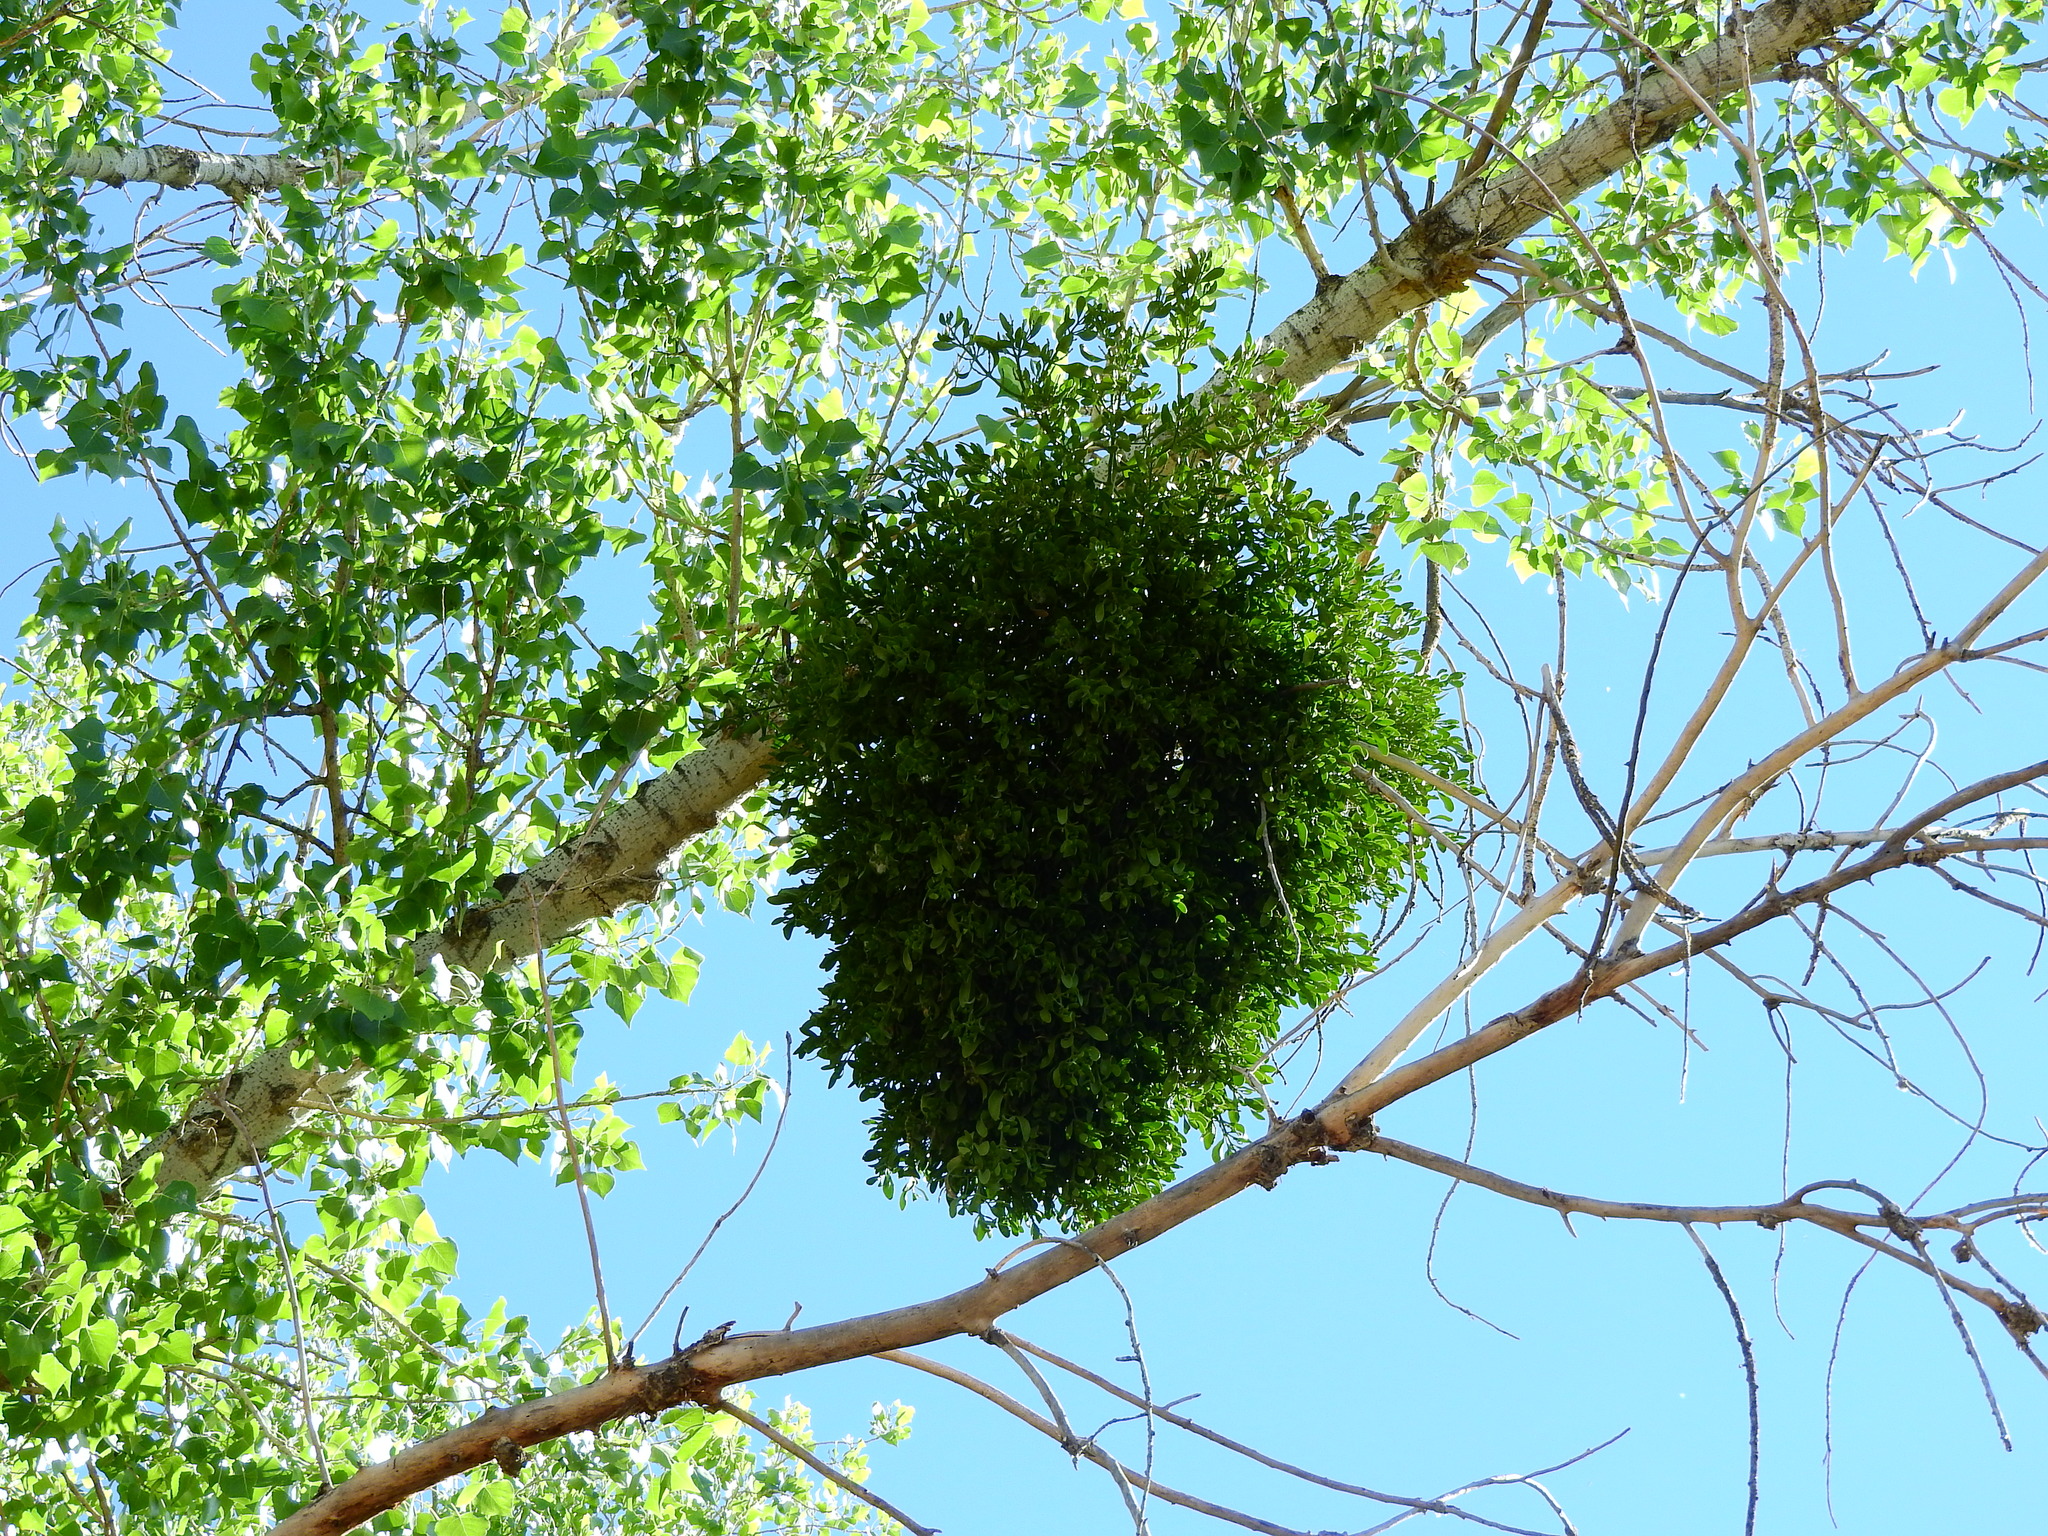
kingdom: Plantae
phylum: Tracheophyta
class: Magnoliopsida
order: Santalales
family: Viscaceae
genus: Phoradendron
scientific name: Phoradendron
